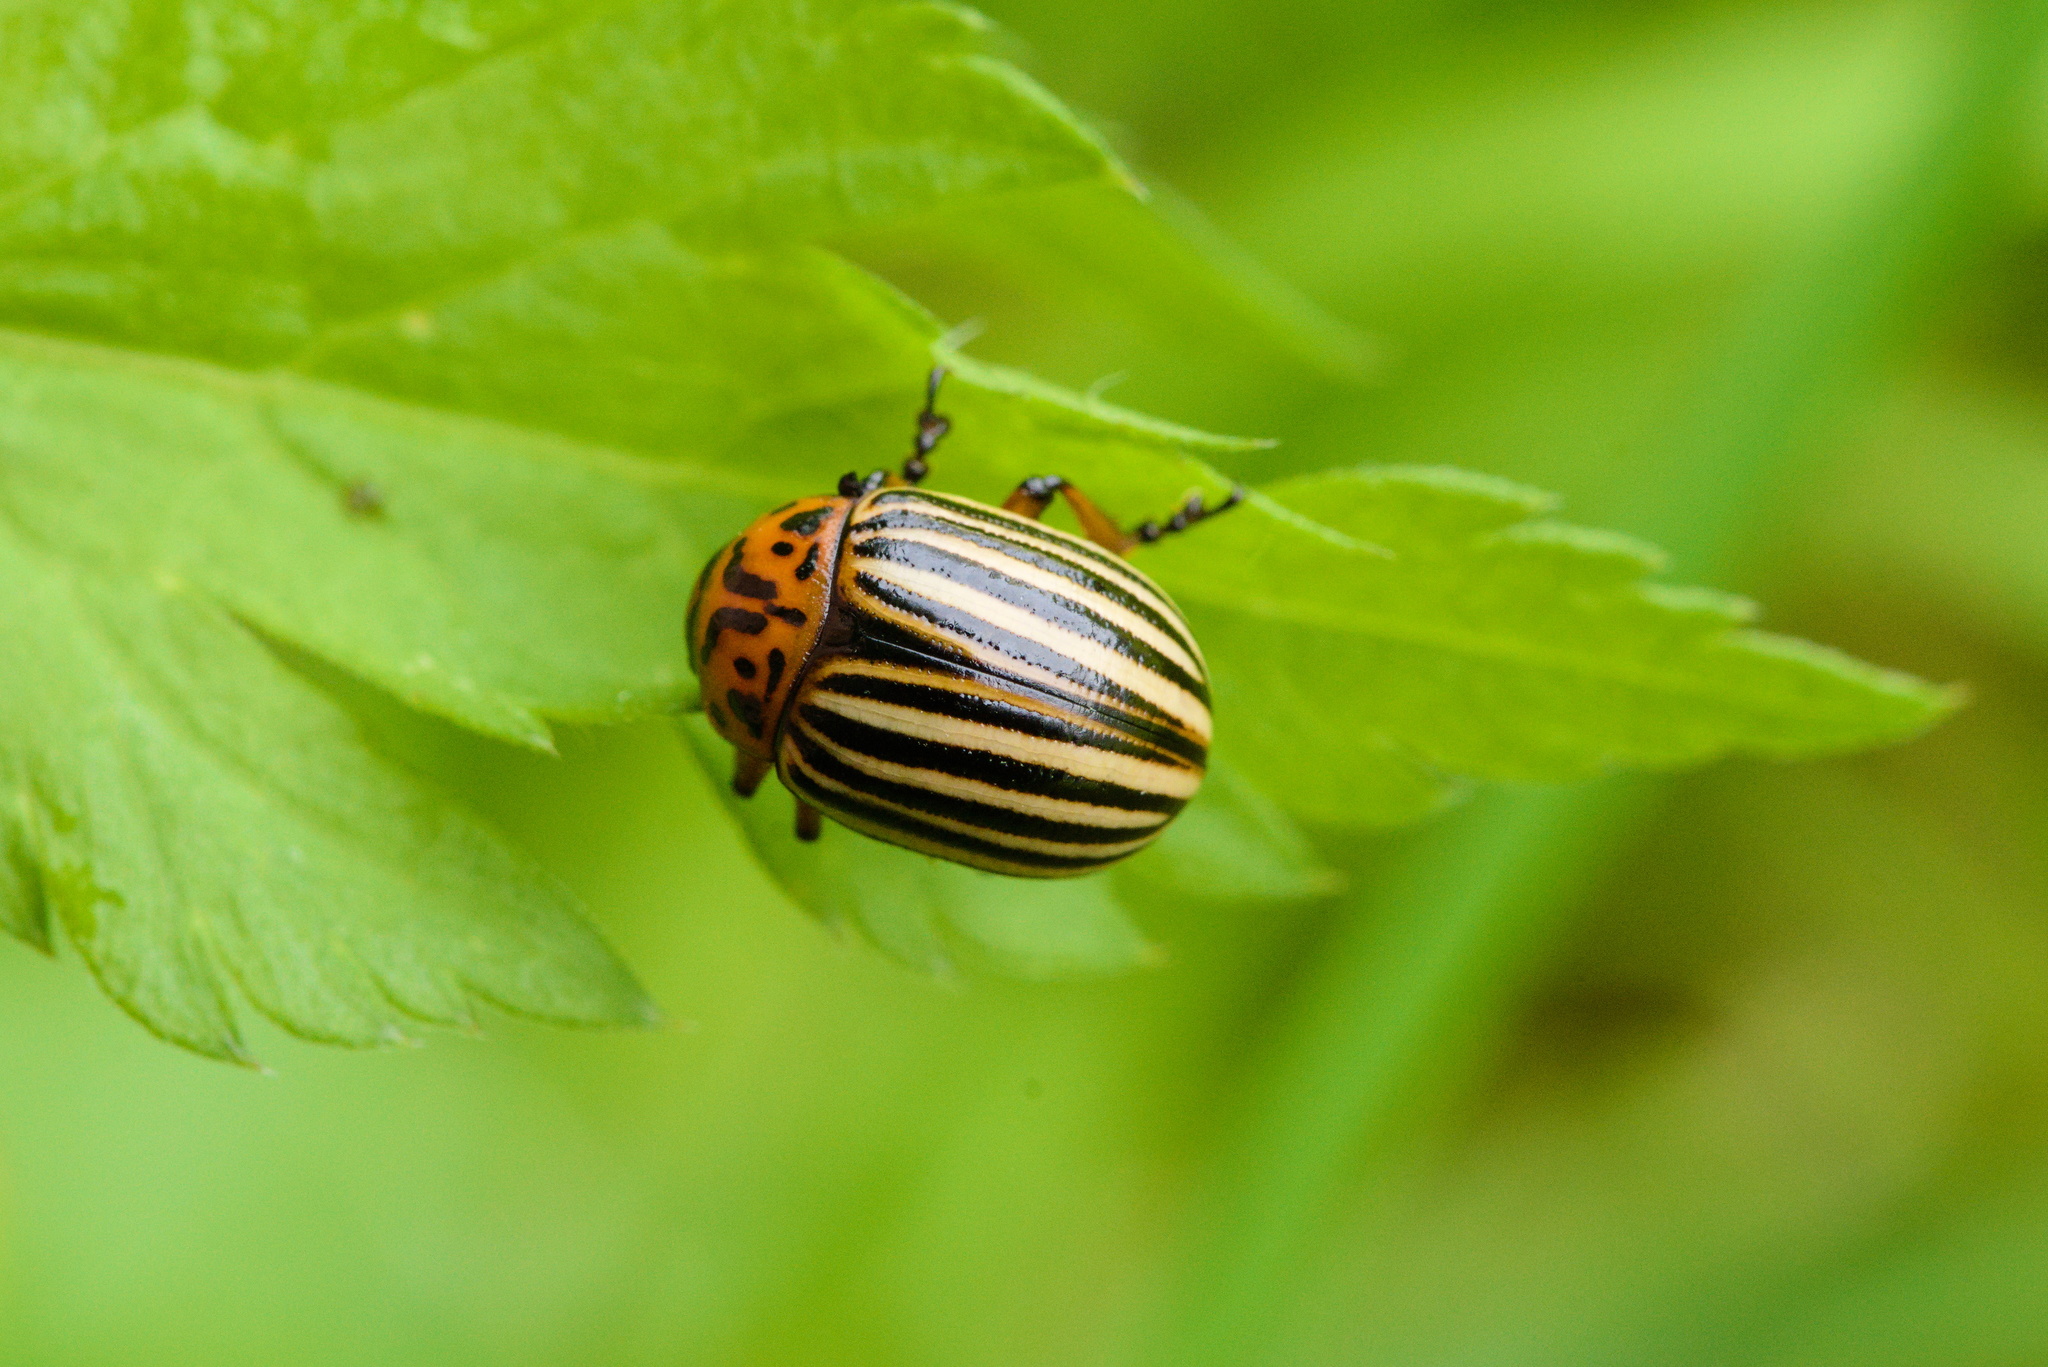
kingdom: Animalia
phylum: Arthropoda
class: Insecta
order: Coleoptera
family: Chrysomelidae
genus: Leptinotarsa
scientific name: Leptinotarsa decemlineata
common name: Colorado potato beetle
